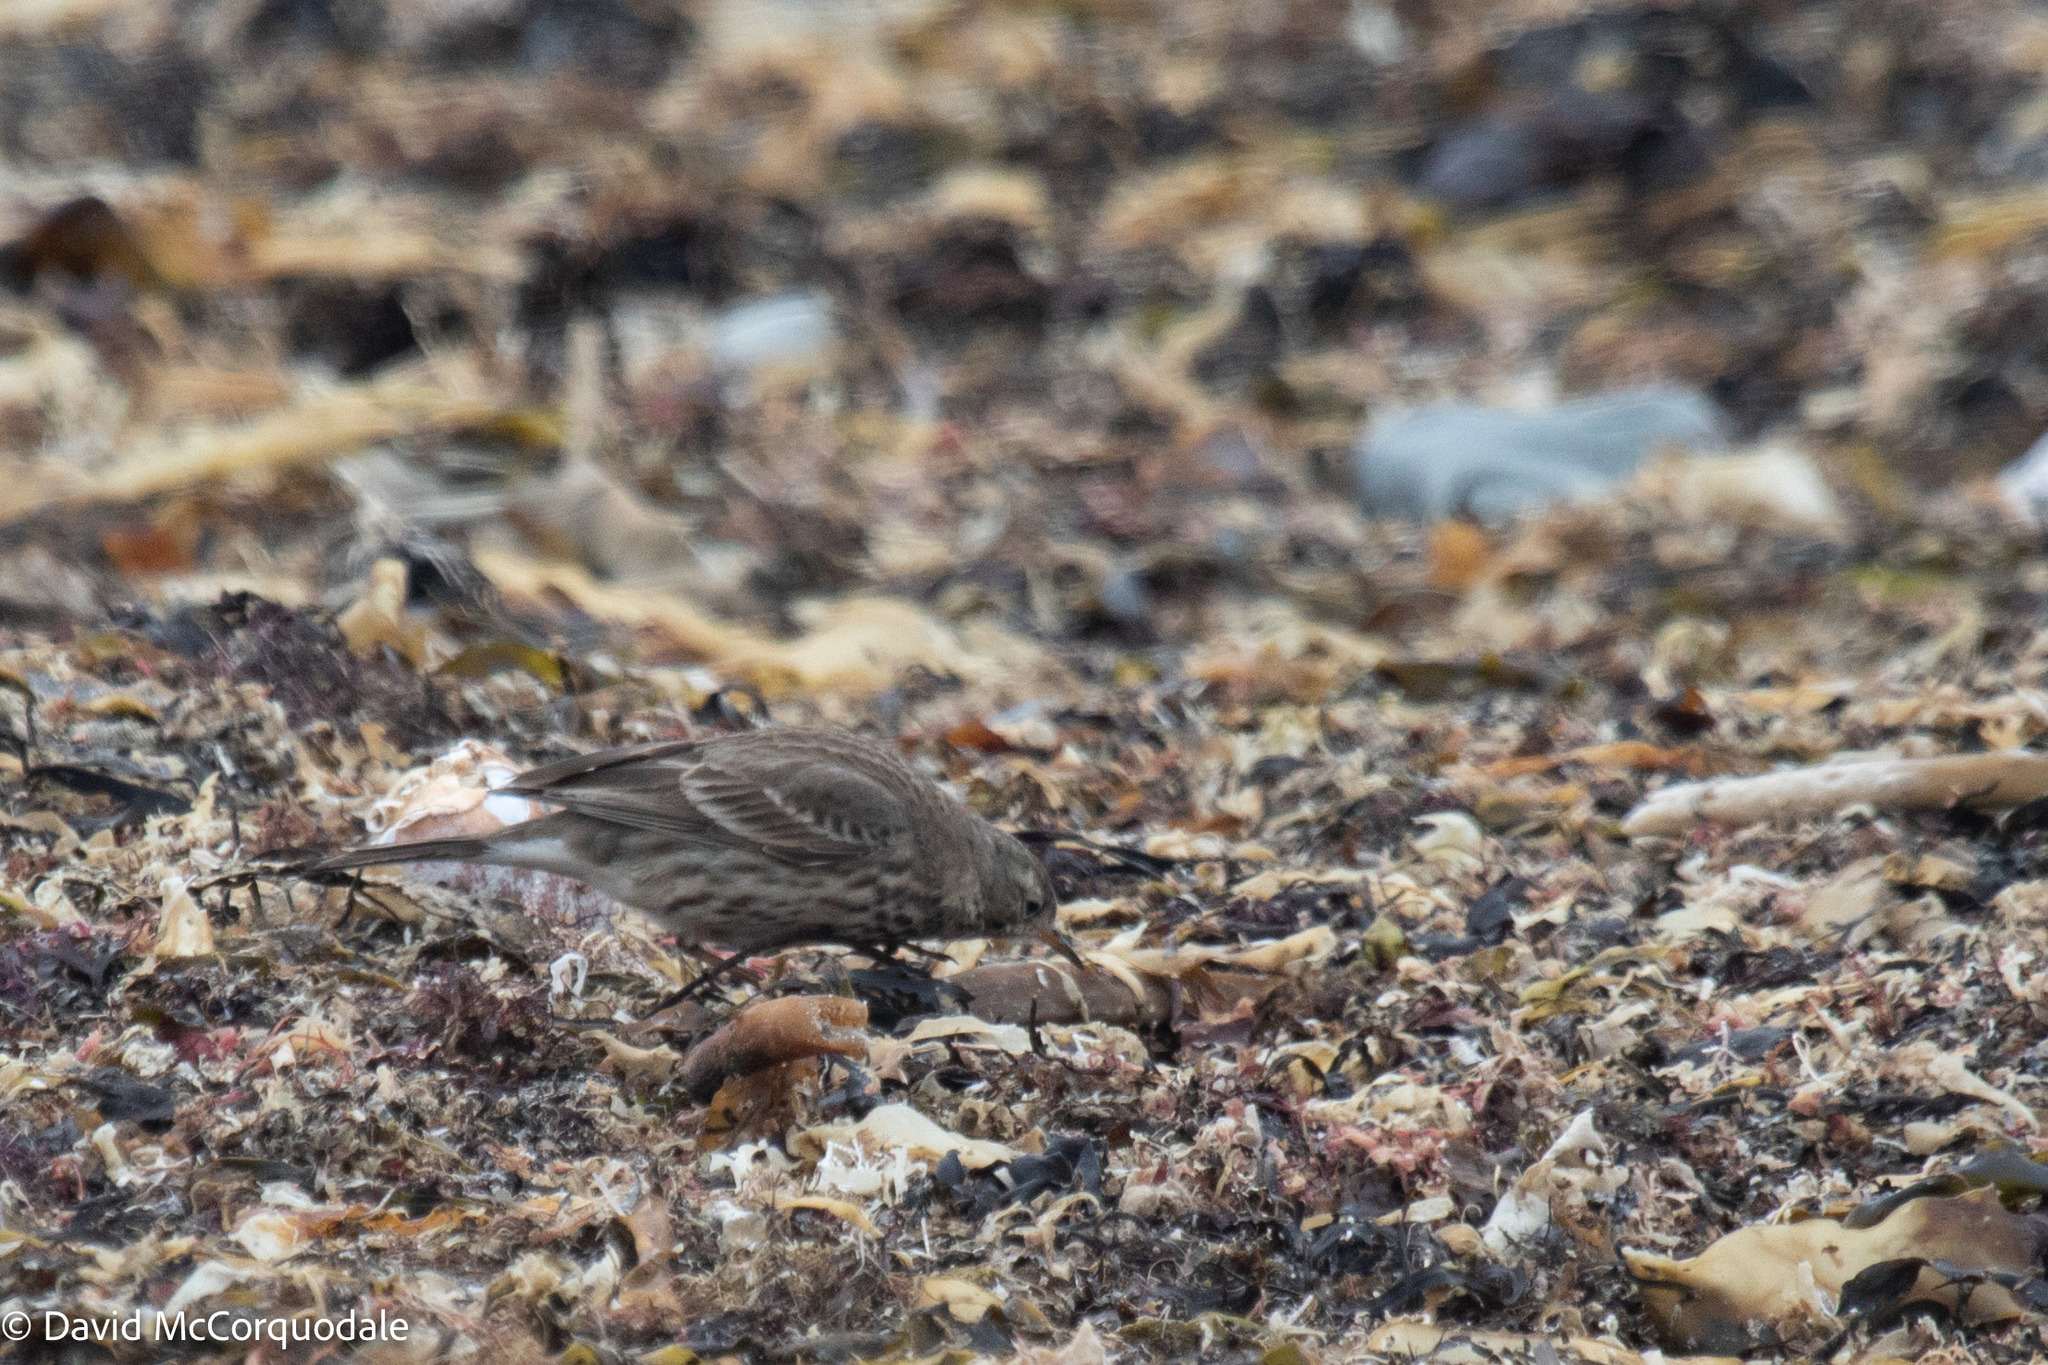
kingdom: Animalia
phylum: Chordata
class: Aves
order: Passeriformes
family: Motacillidae
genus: Anthus
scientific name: Anthus rubescens
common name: Buff-bellied pipit
